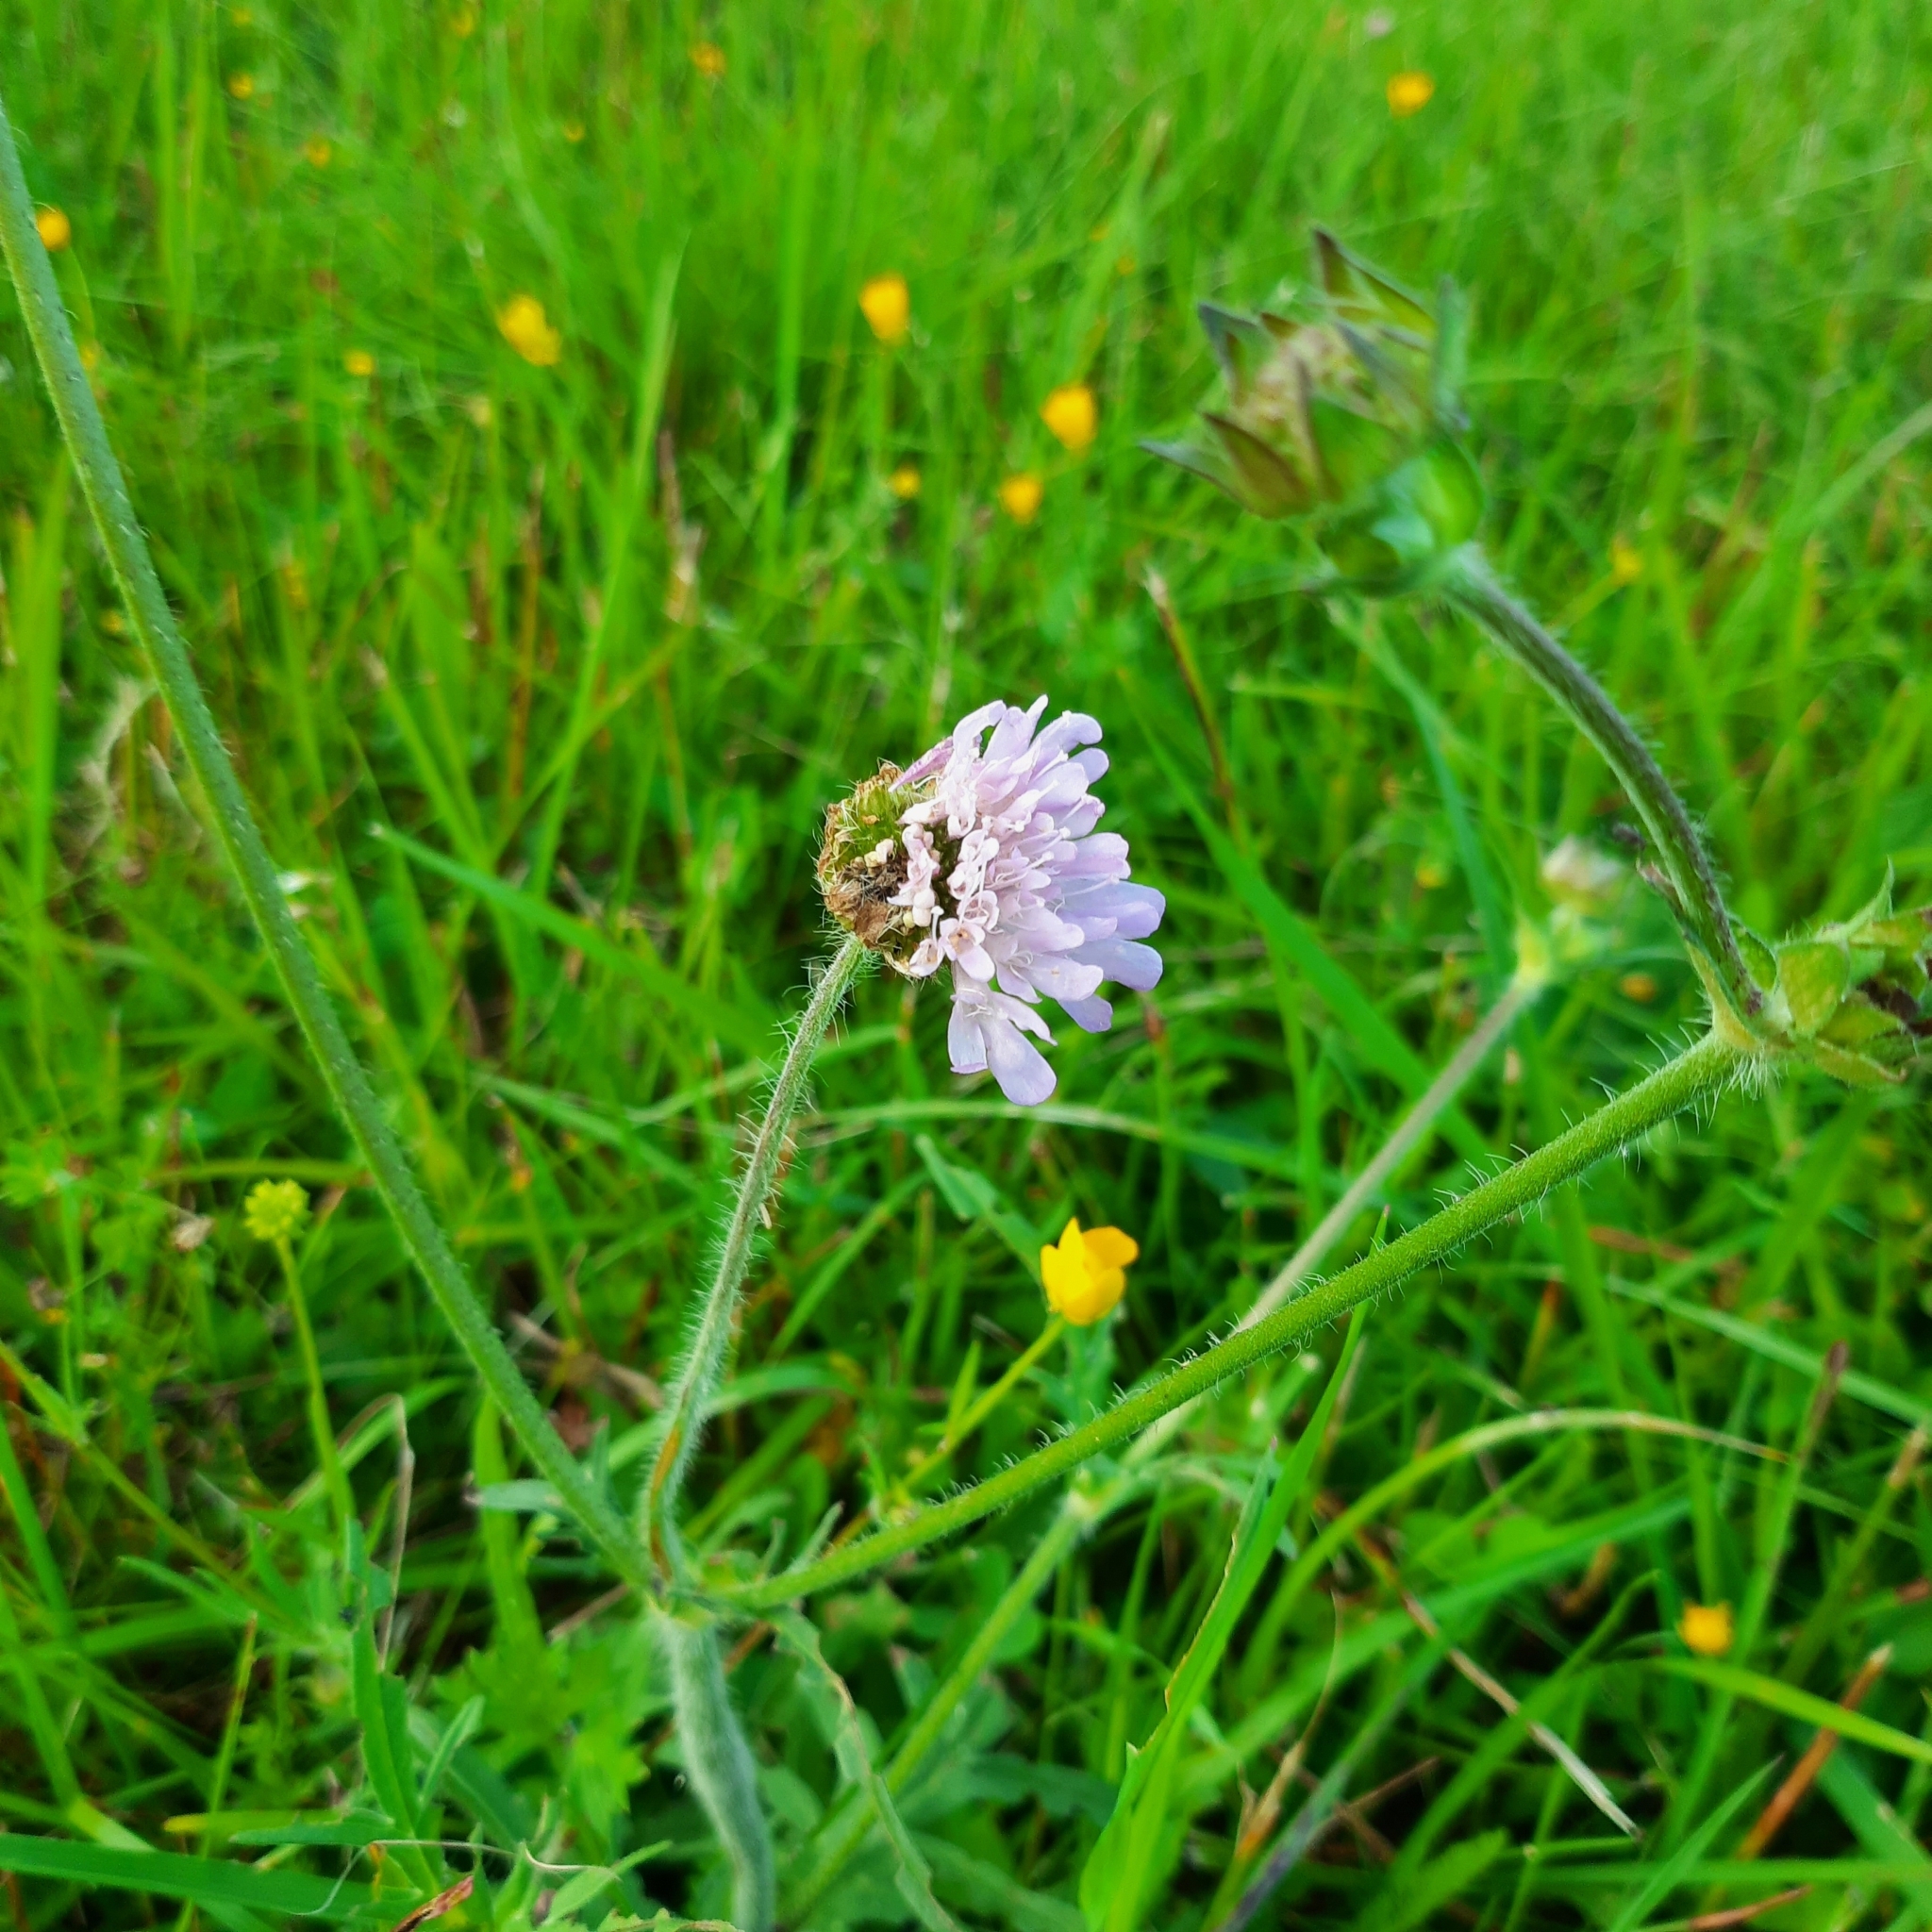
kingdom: Plantae
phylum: Tracheophyta
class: Magnoliopsida
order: Dipsacales
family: Caprifoliaceae
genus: Knautia
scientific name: Knautia arvensis
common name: Field scabiosa
